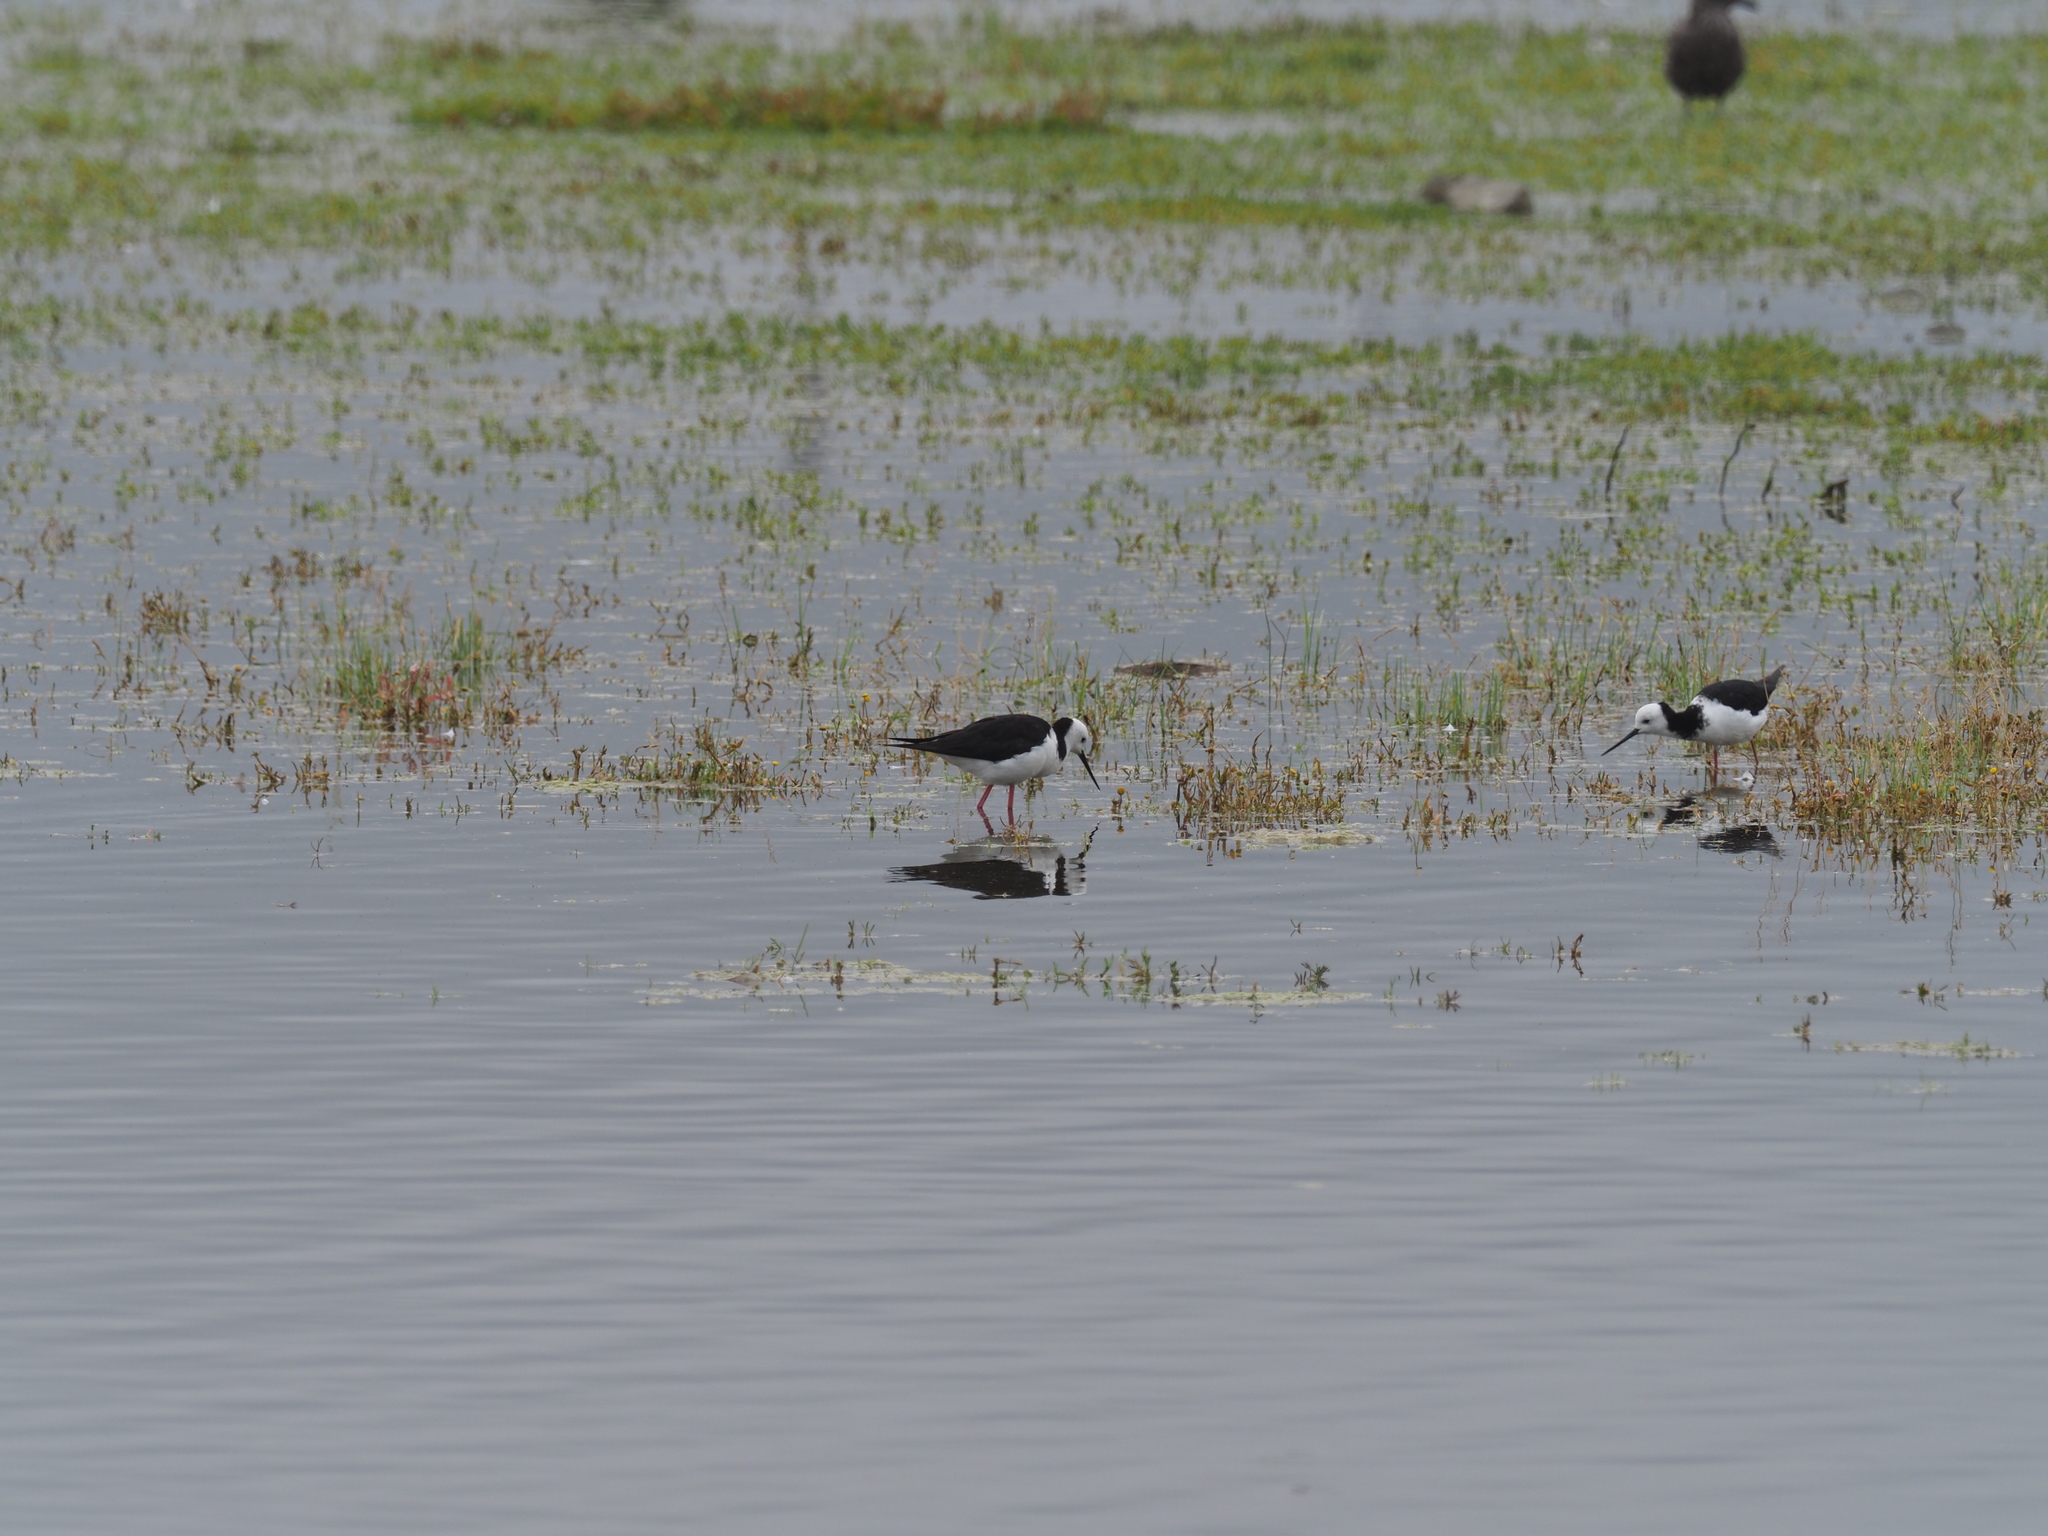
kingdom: Animalia
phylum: Chordata
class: Aves
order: Charadriiformes
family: Recurvirostridae
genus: Himantopus
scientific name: Himantopus leucocephalus
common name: White-headed stilt
